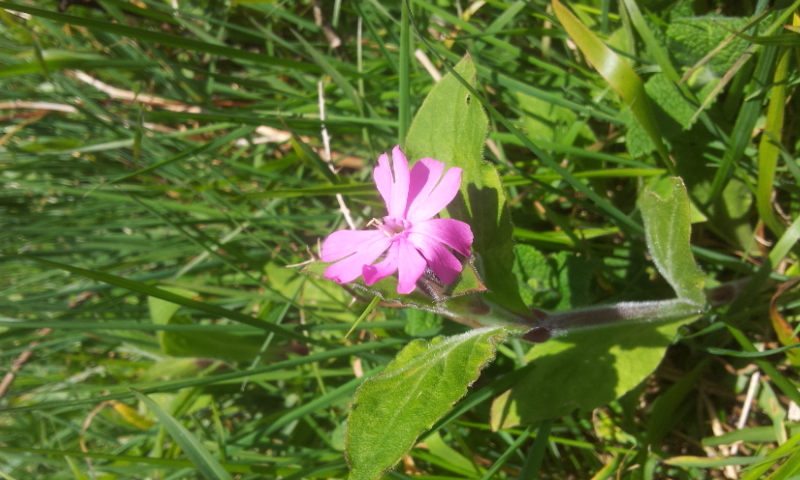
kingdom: Plantae
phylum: Tracheophyta
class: Magnoliopsida
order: Caryophyllales
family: Caryophyllaceae
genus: Silene
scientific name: Silene dioica
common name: Red campion
